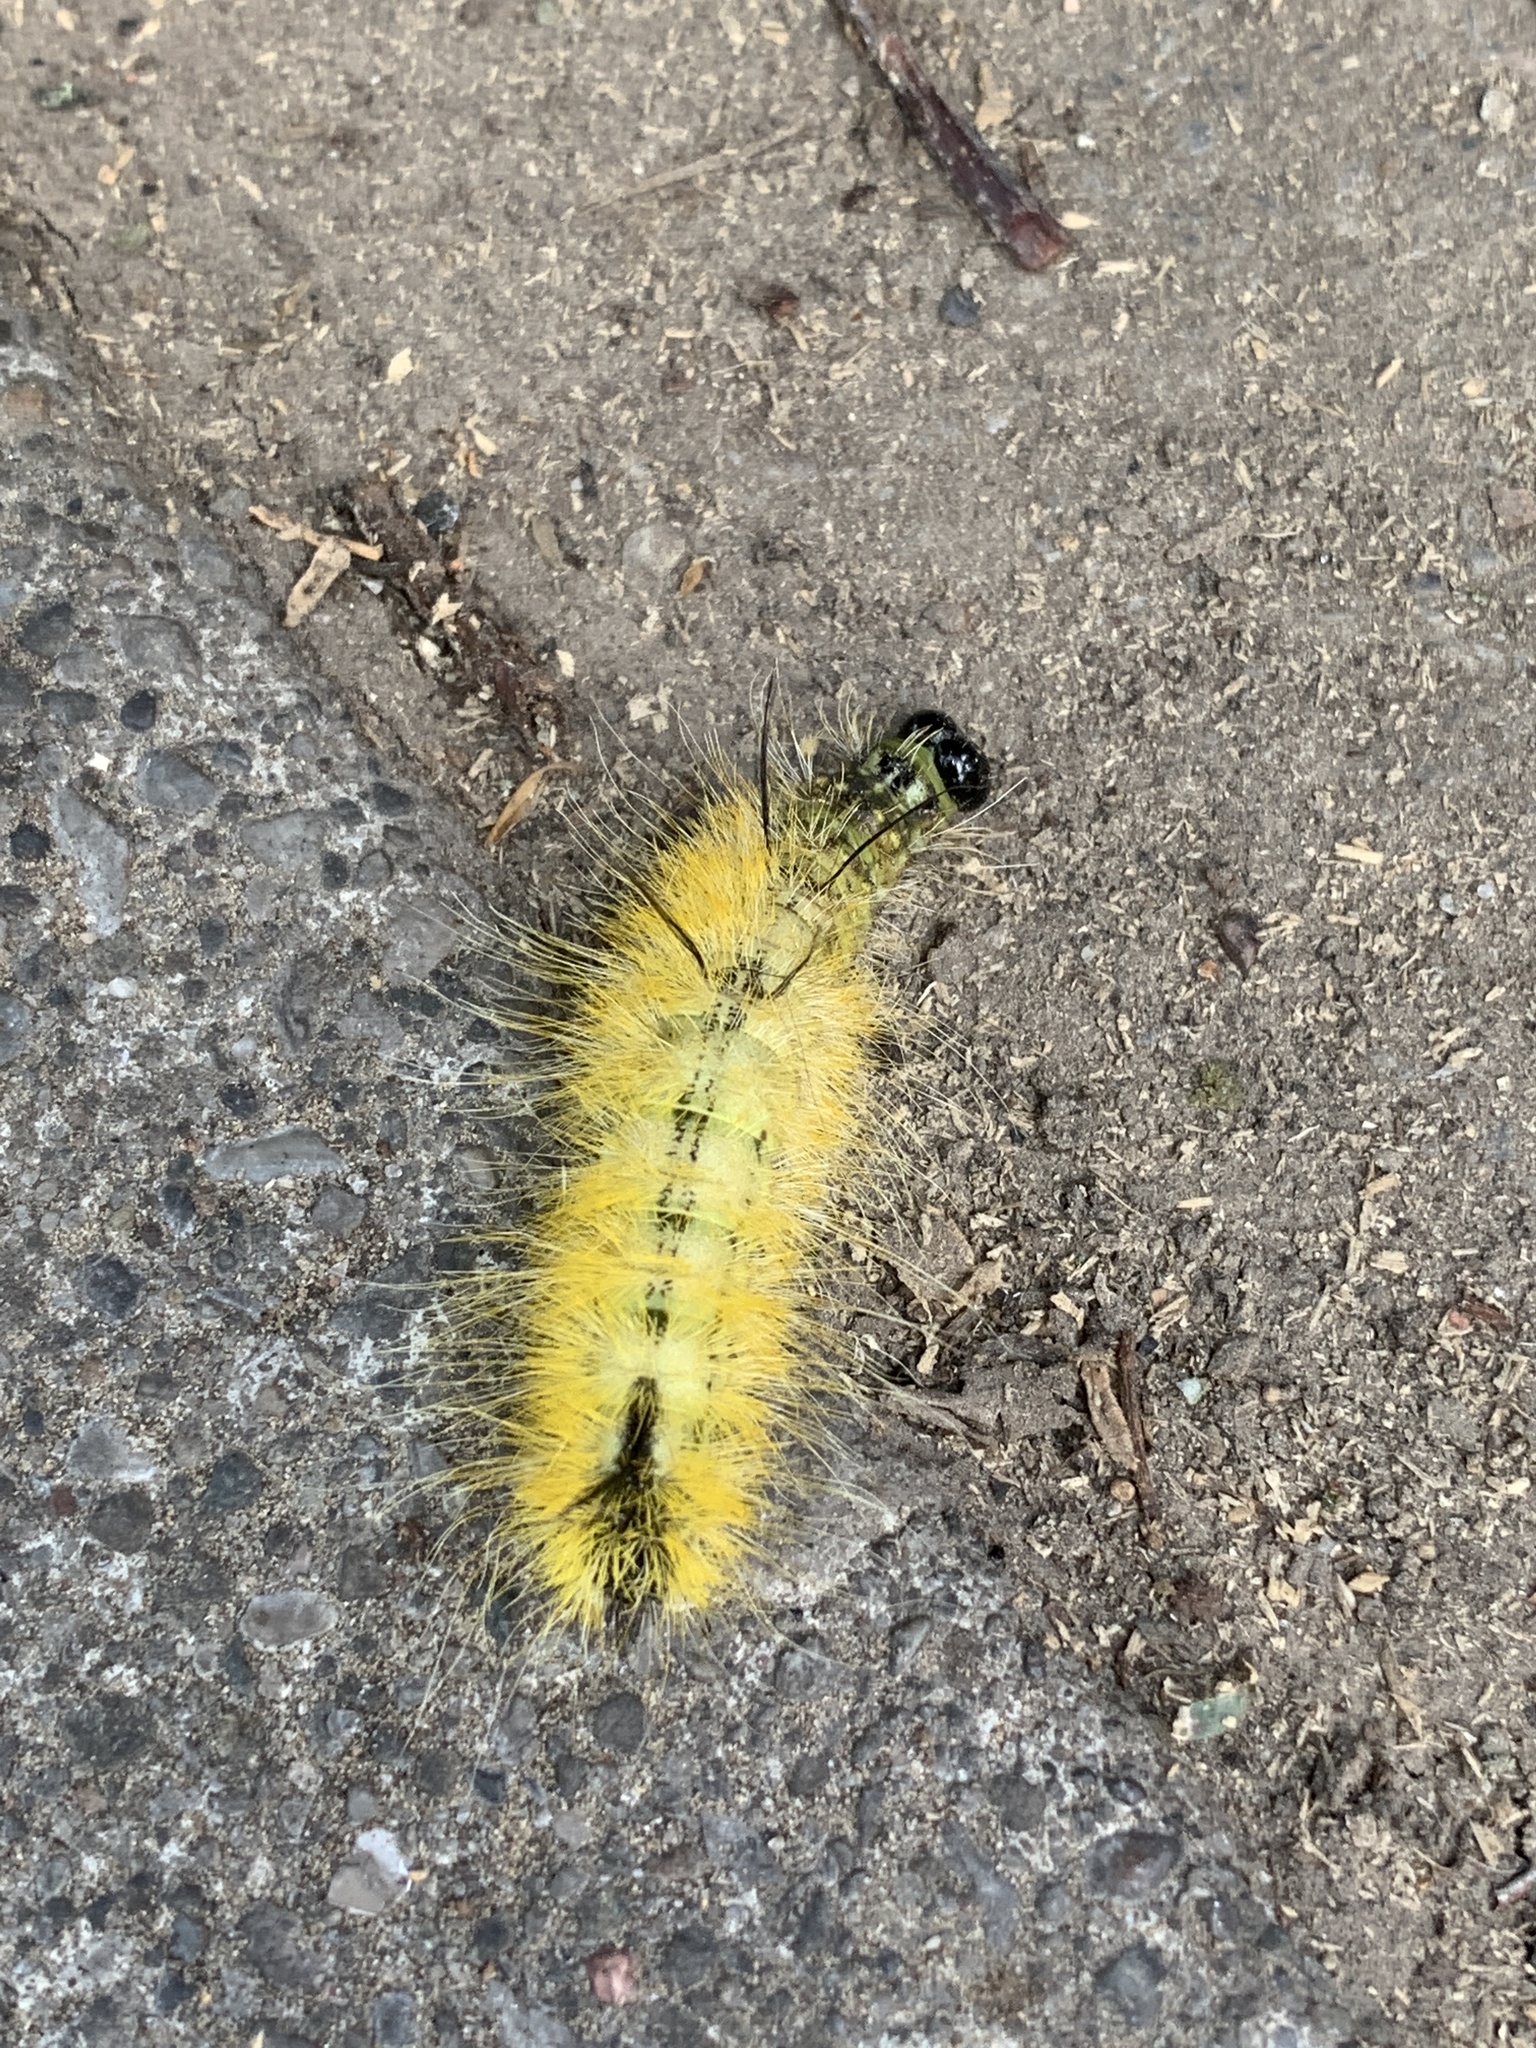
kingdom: Animalia
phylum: Arthropoda
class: Insecta
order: Lepidoptera
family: Noctuidae
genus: Acronicta
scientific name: Acronicta americana
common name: American dagger
